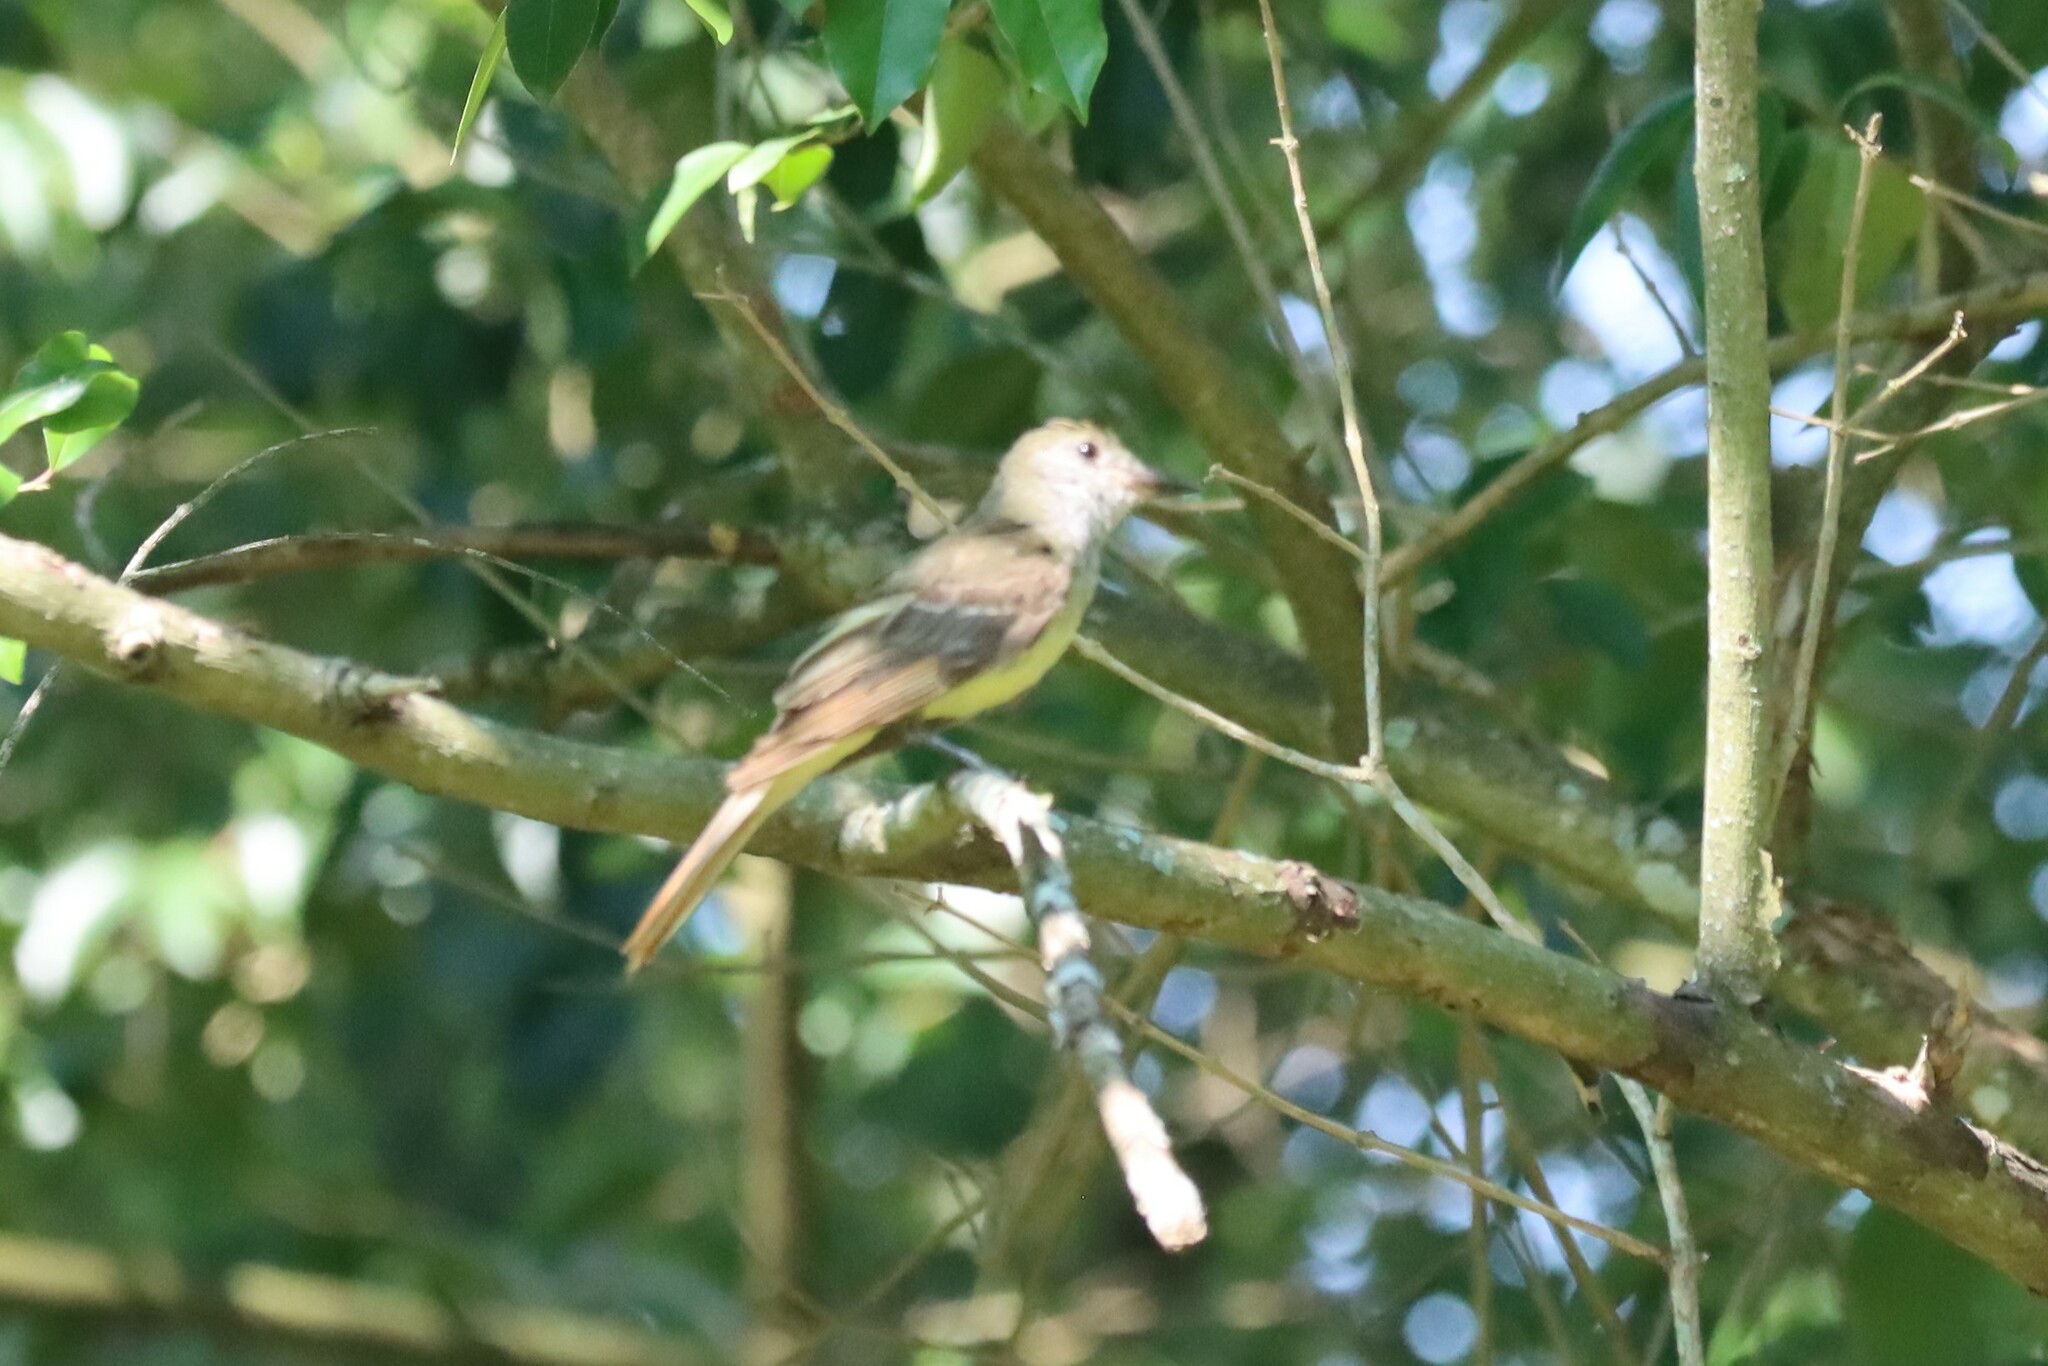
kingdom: Animalia
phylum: Chordata
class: Aves
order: Passeriformes
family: Tyrannidae
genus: Myiarchus
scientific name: Myiarchus crinitus
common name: Great crested flycatcher
